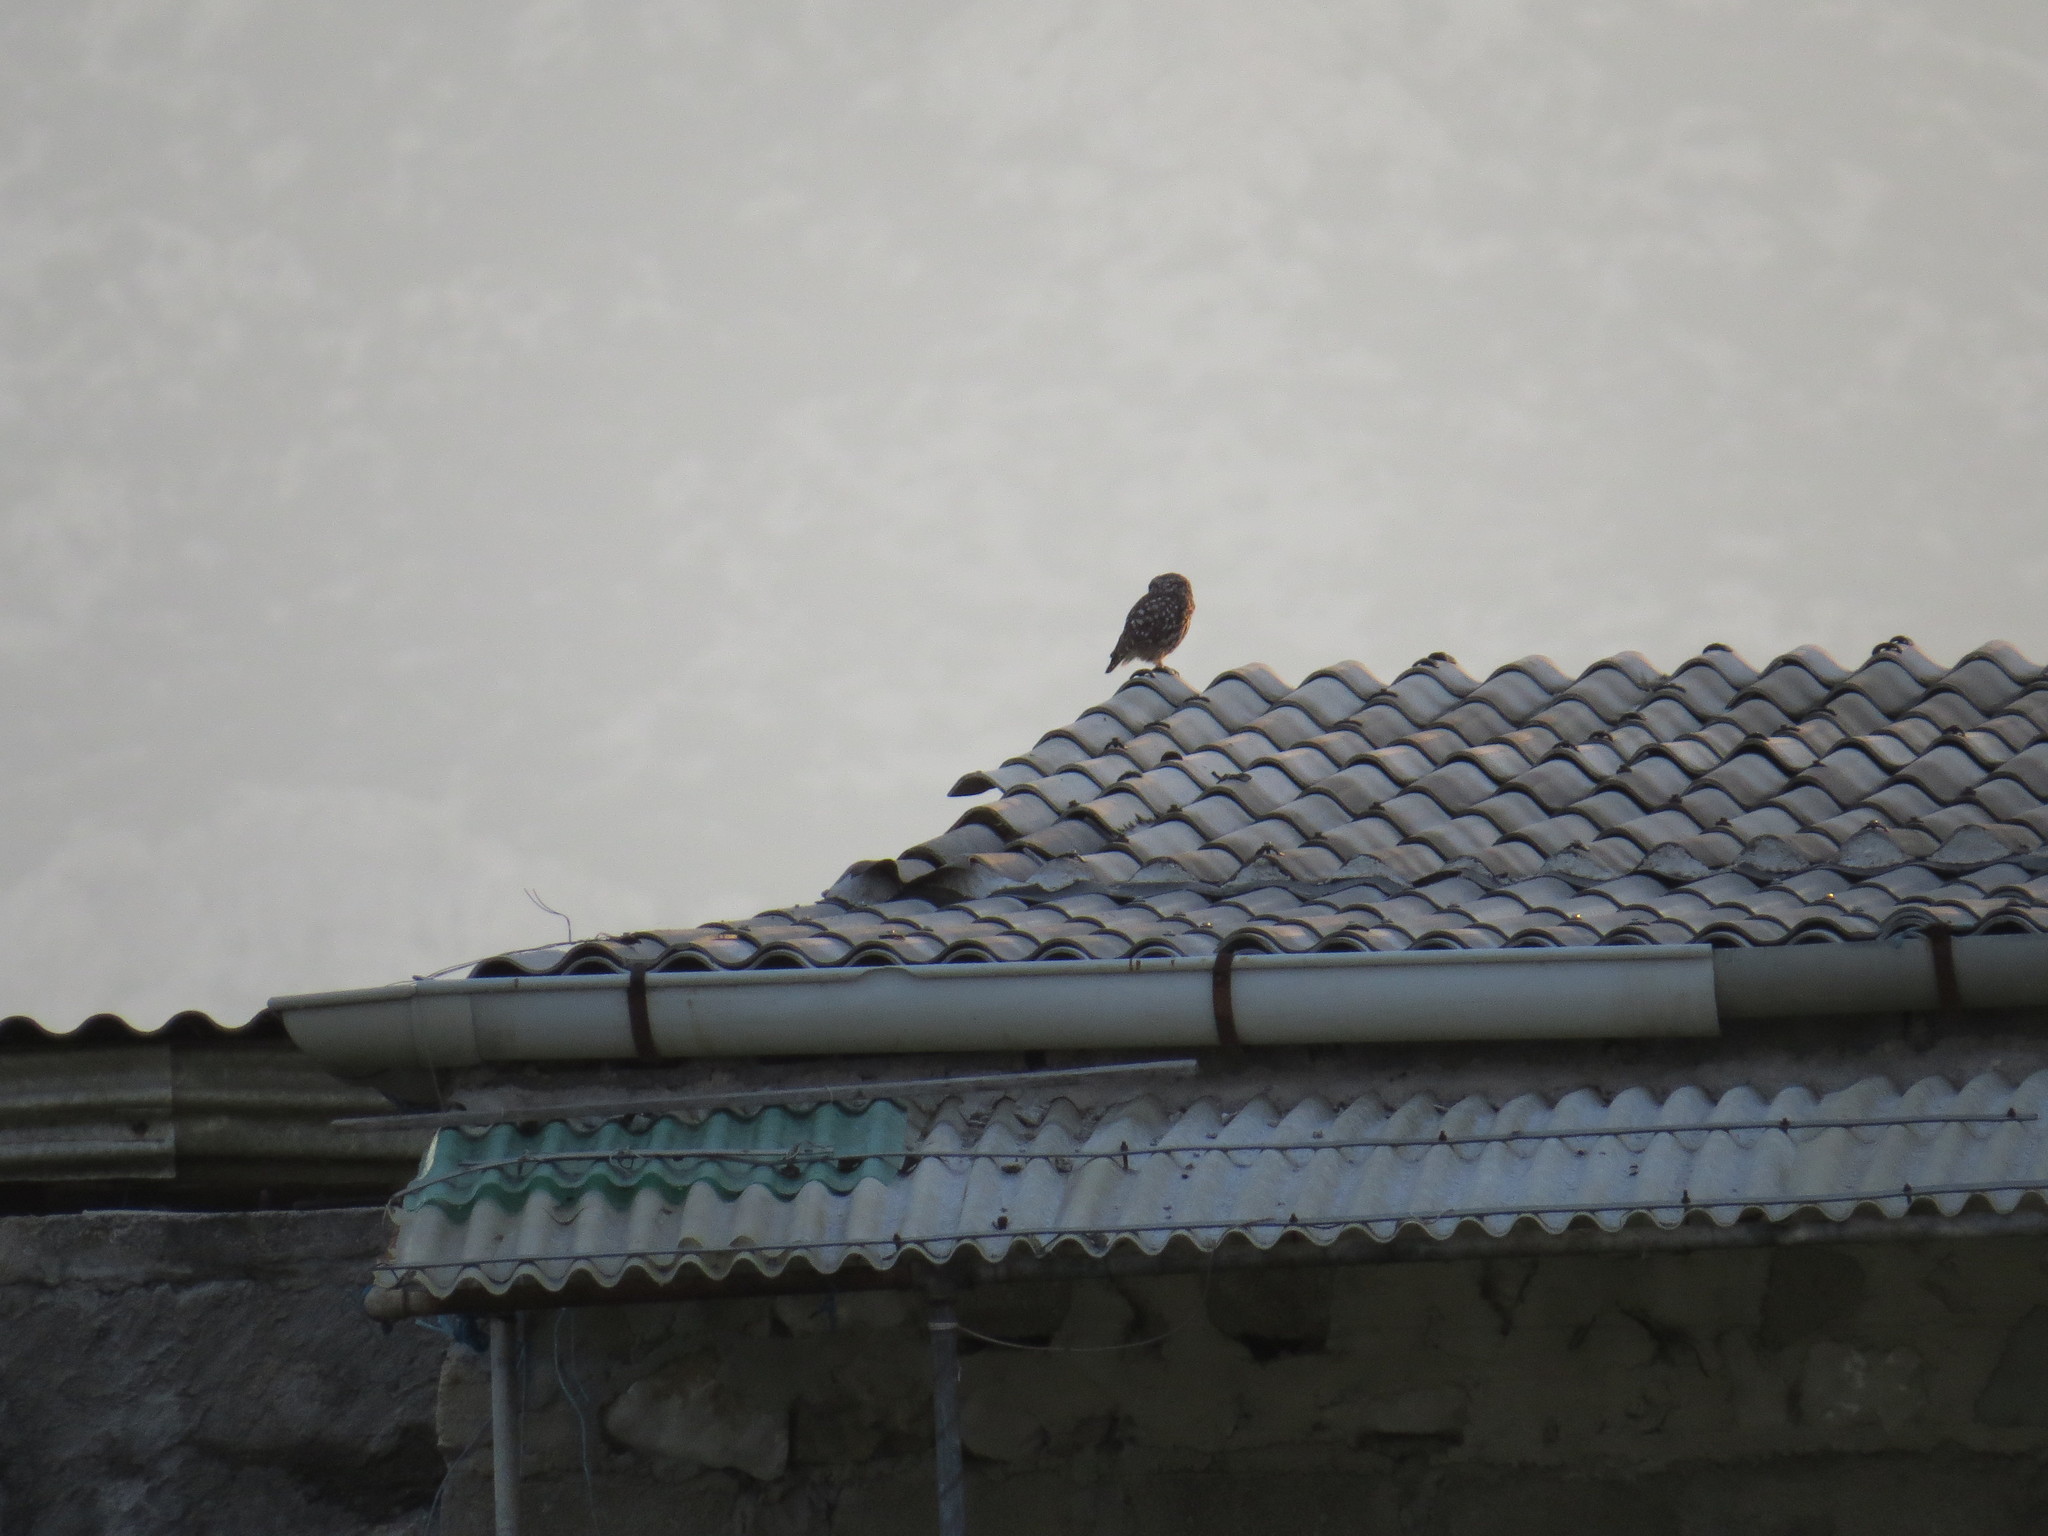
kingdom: Animalia
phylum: Chordata
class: Aves
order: Strigiformes
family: Strigidae
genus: Athene
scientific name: Athene noctua
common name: Little owl
